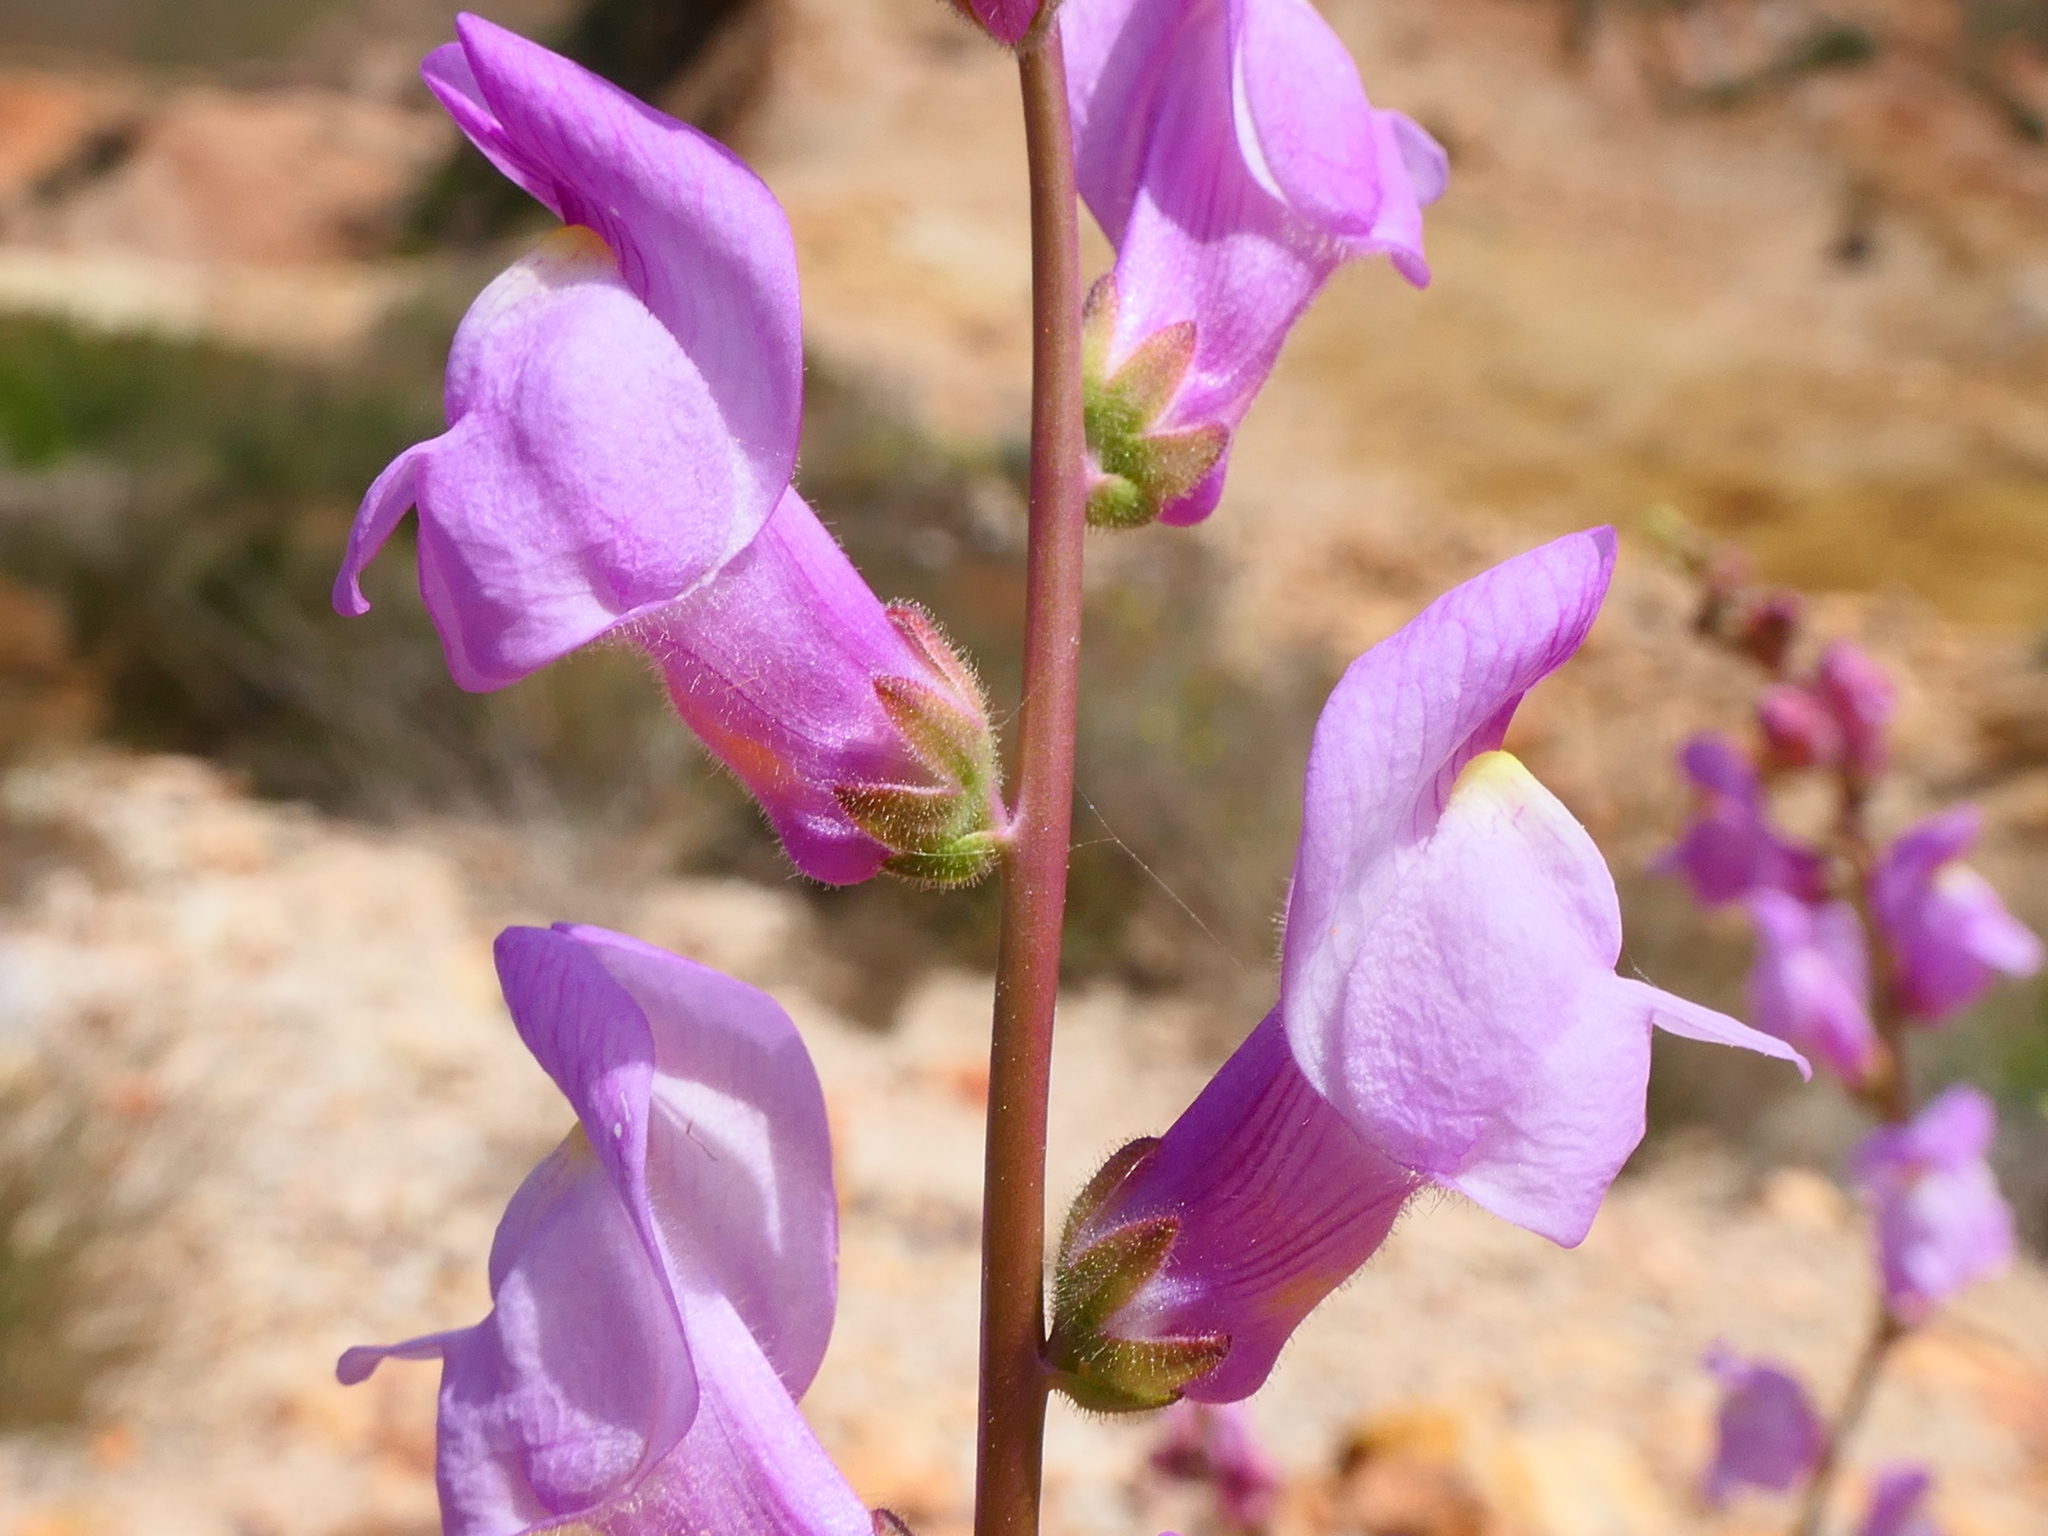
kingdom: Plantae
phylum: Tracheophyta
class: Magnoliopsida
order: Lamiales
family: Plantaginaceae
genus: Antirrhinum
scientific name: Antirrhinum litigiosum
